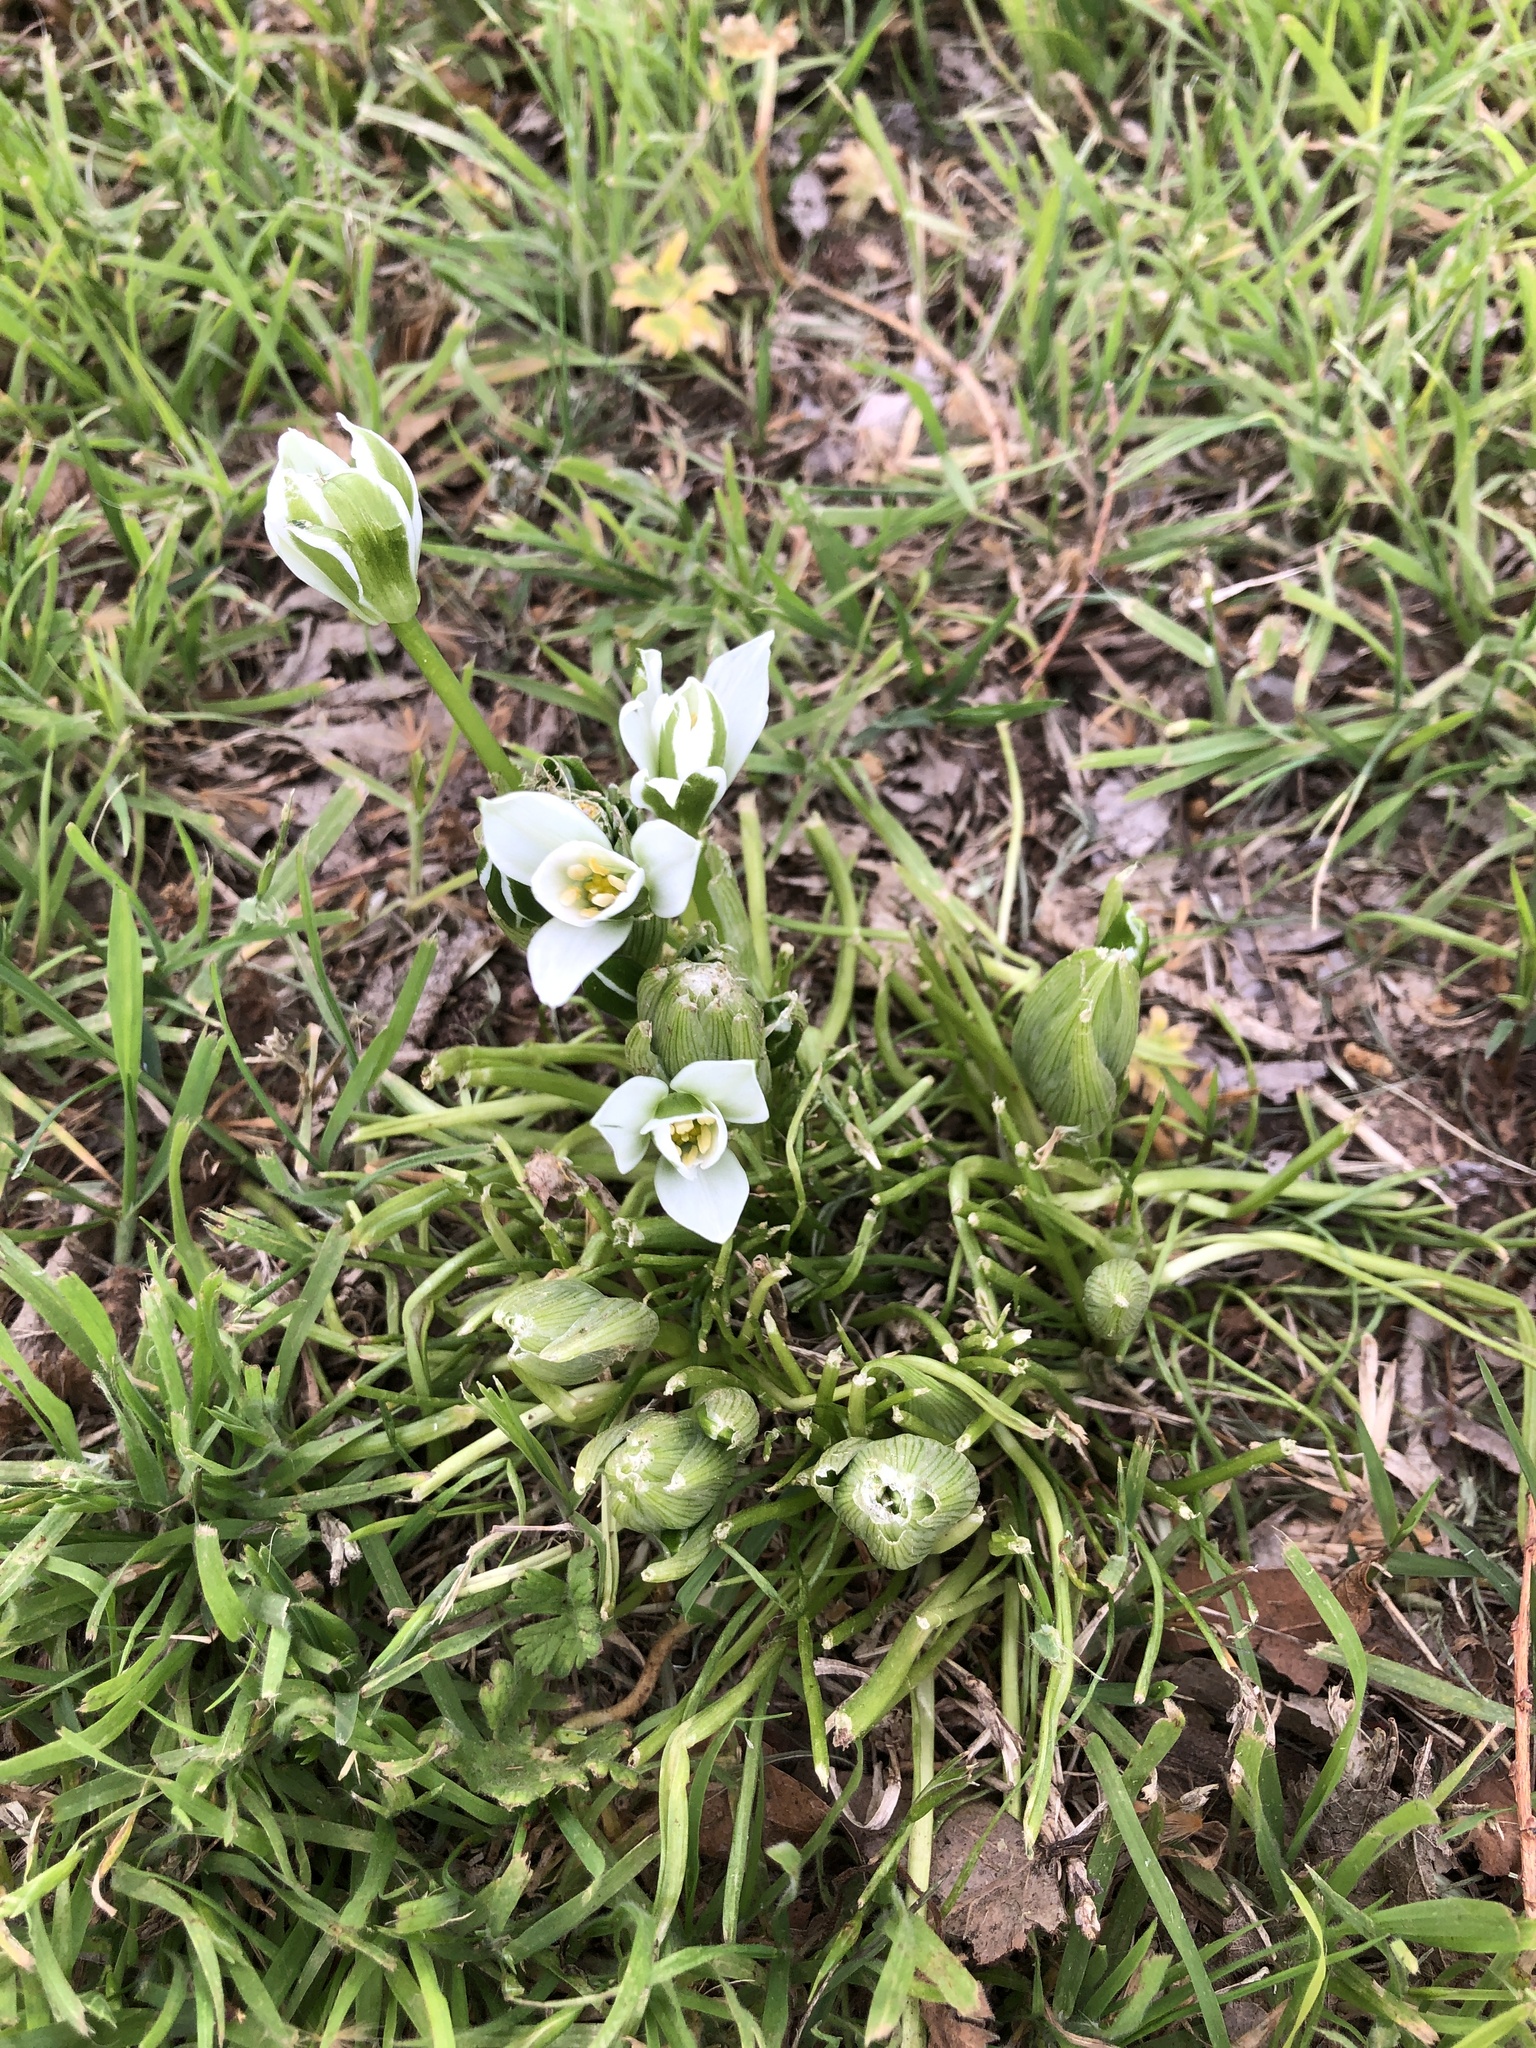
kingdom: Plantae
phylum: Tracheophyta
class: Liliopsida
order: Asparagales
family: Asparagaceae
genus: Ornithogalum
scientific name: Ornithogalum umbellatum
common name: Garden star-of-bethlehem
